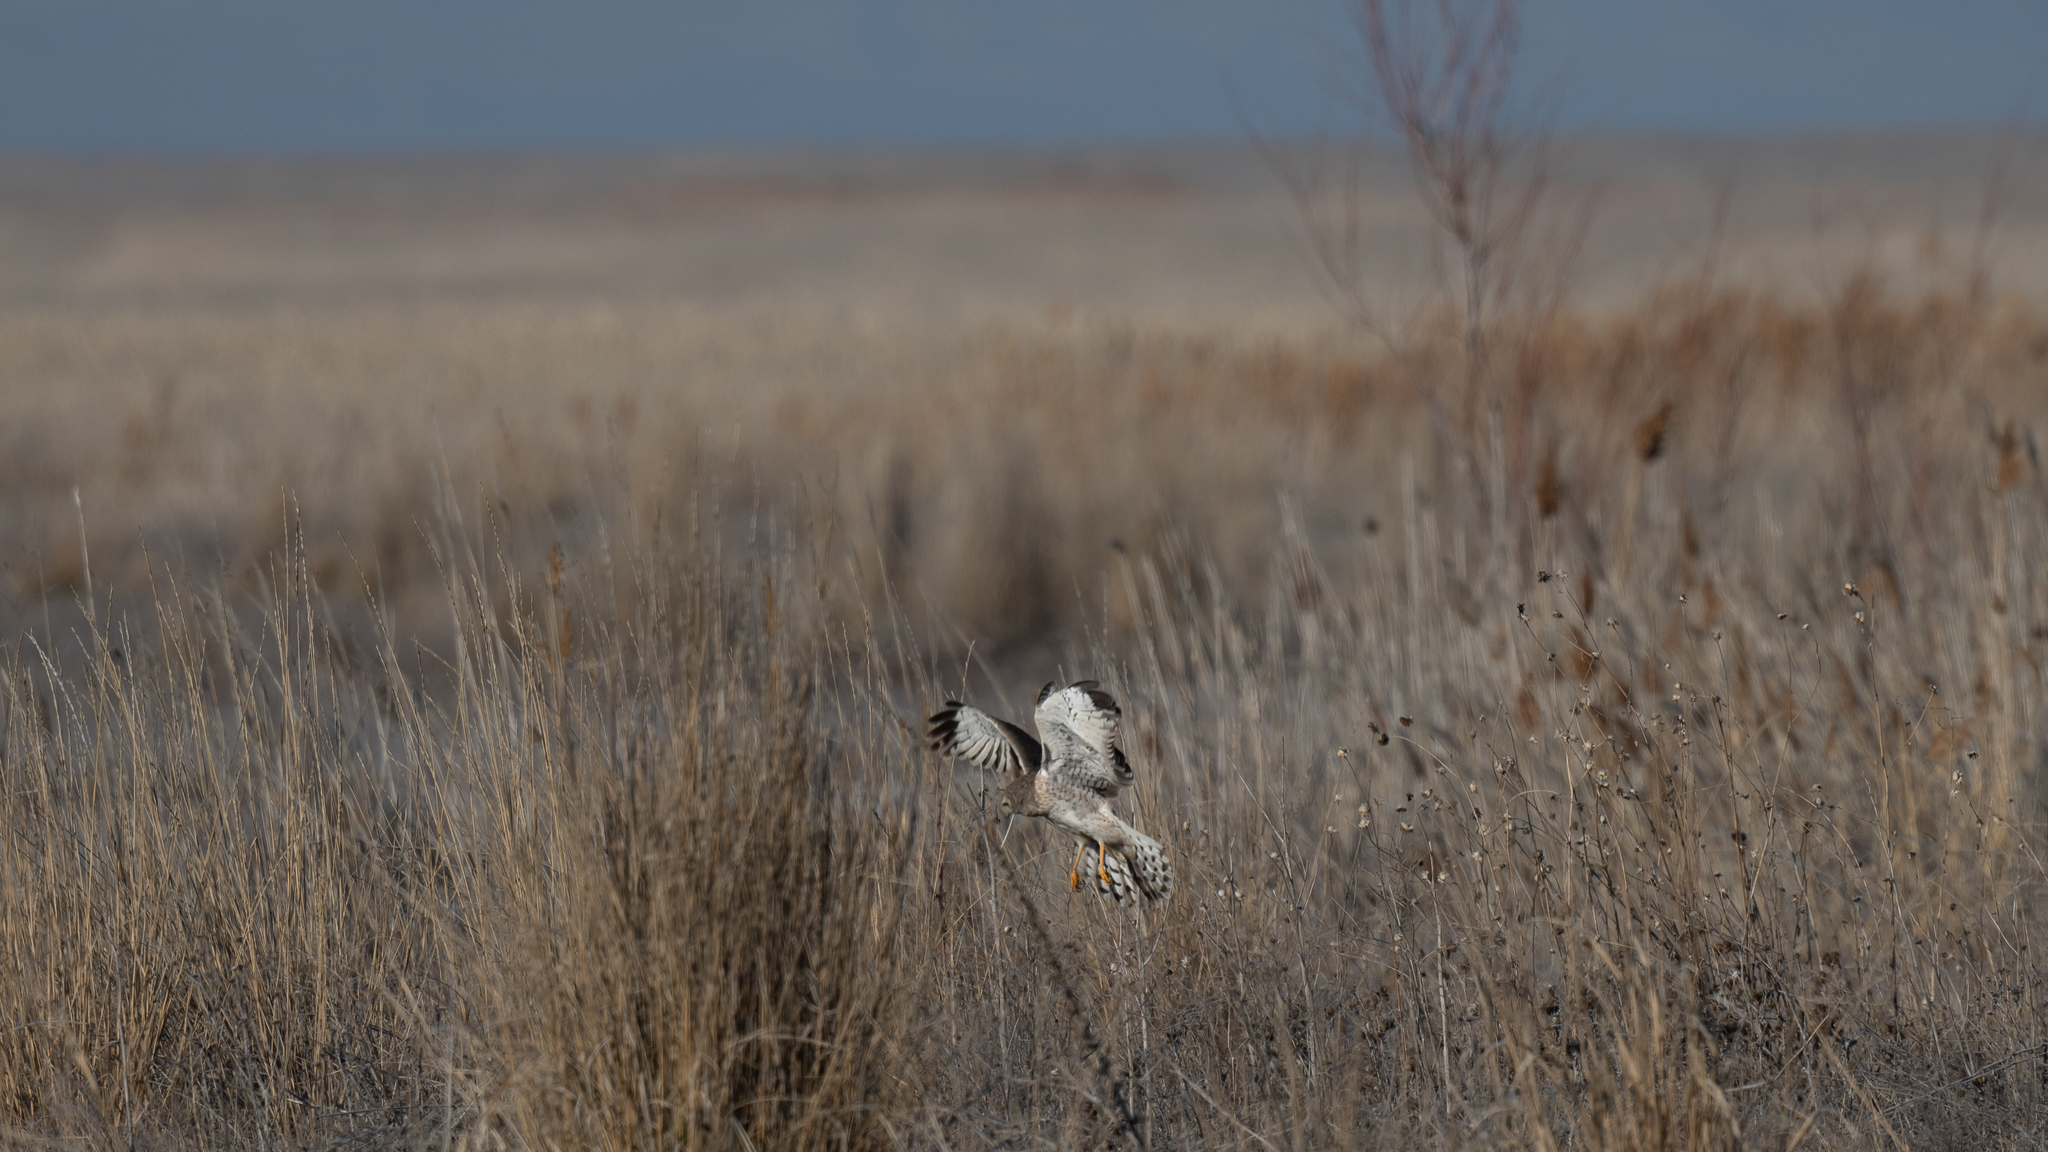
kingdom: Animalia
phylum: Chordata
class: Aves
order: Accipitriformes
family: Accipitridae
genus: Circus
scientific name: Circus cyaneus
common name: Hen harrier
